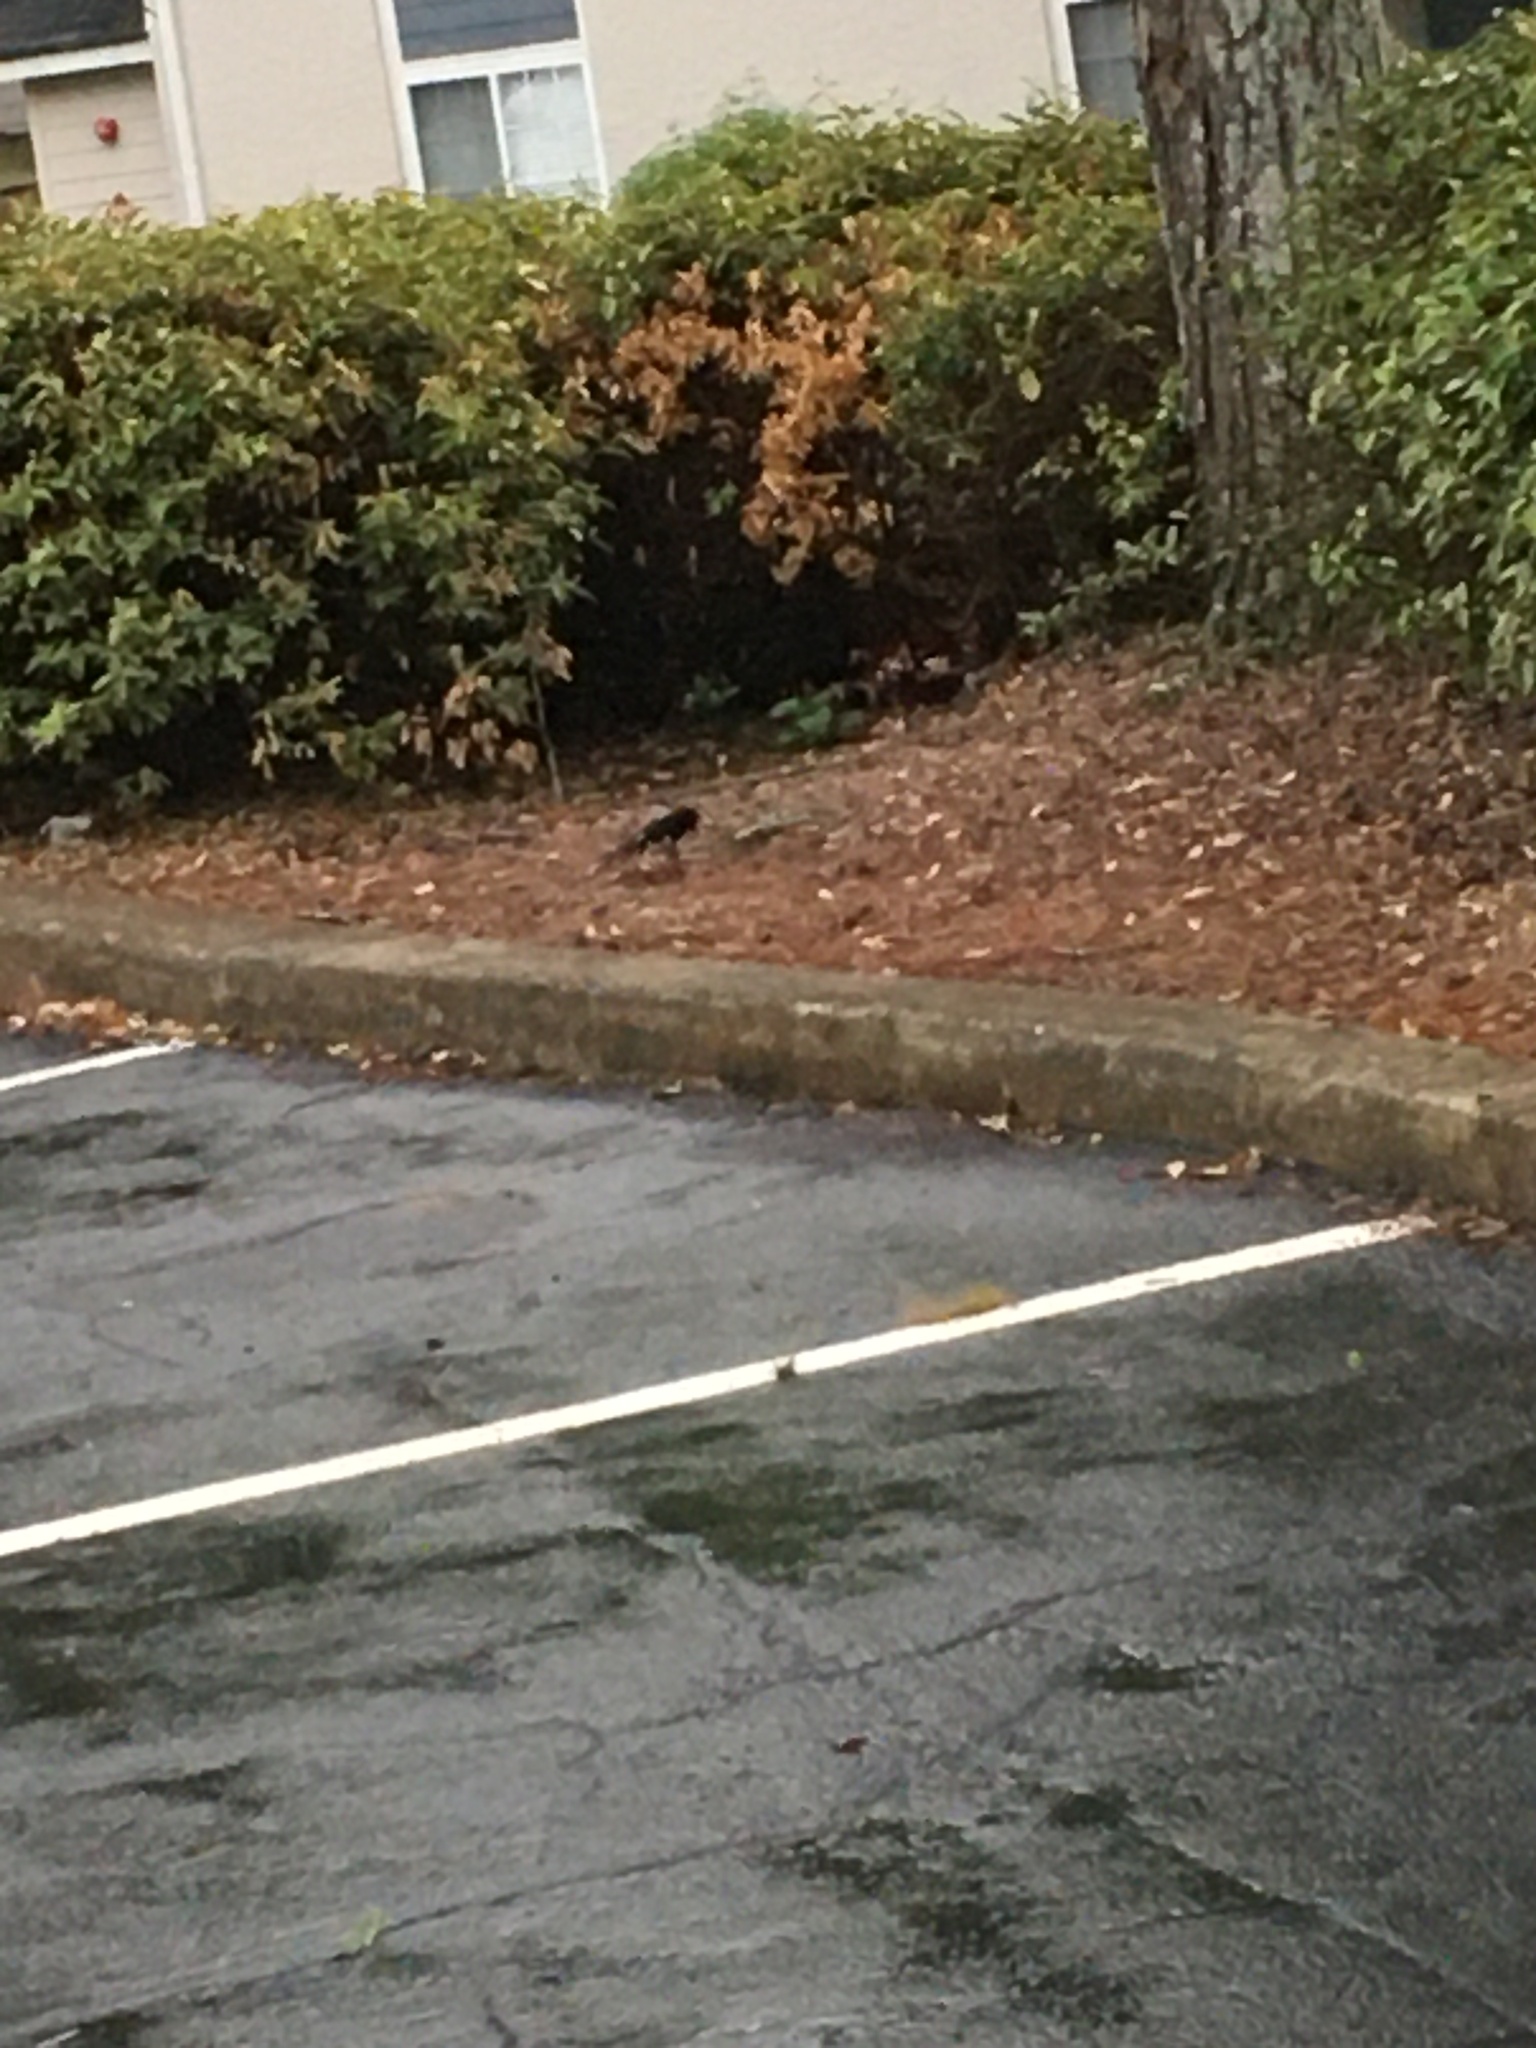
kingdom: Animalia
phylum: Chordata
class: Aves
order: Passeriformes
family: Passerellidae
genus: Pipilo
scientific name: Pipilo erythrophthalmus
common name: Eastern towhee
